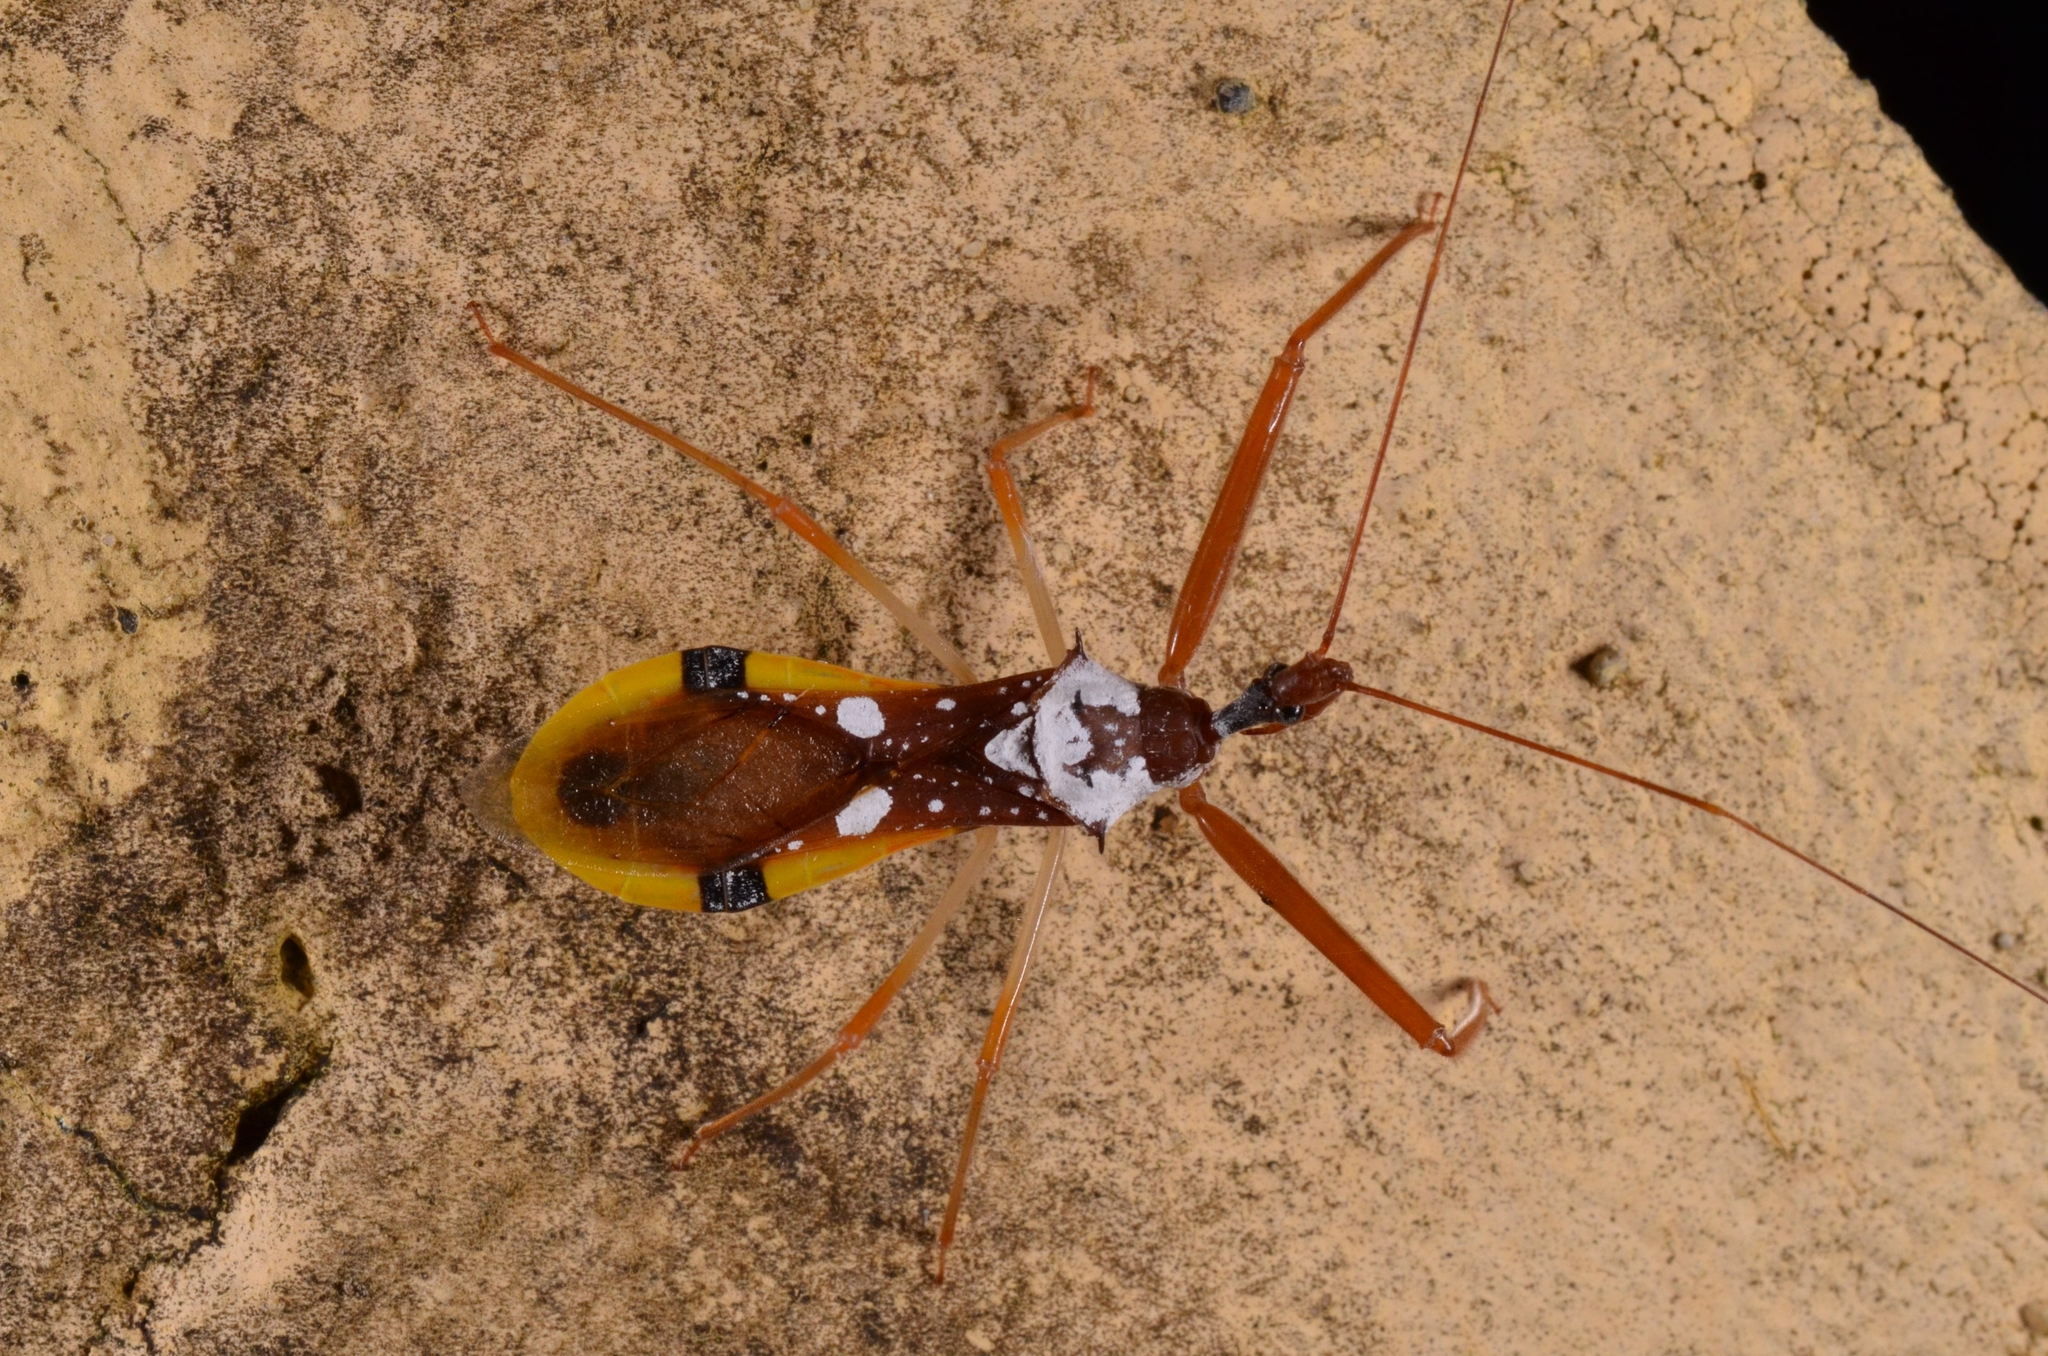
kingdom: Animalia
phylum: Arthropoda
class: Insecta
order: Hemiptera
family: Reduviidae
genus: Epidaus
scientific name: Epidaus famulus
